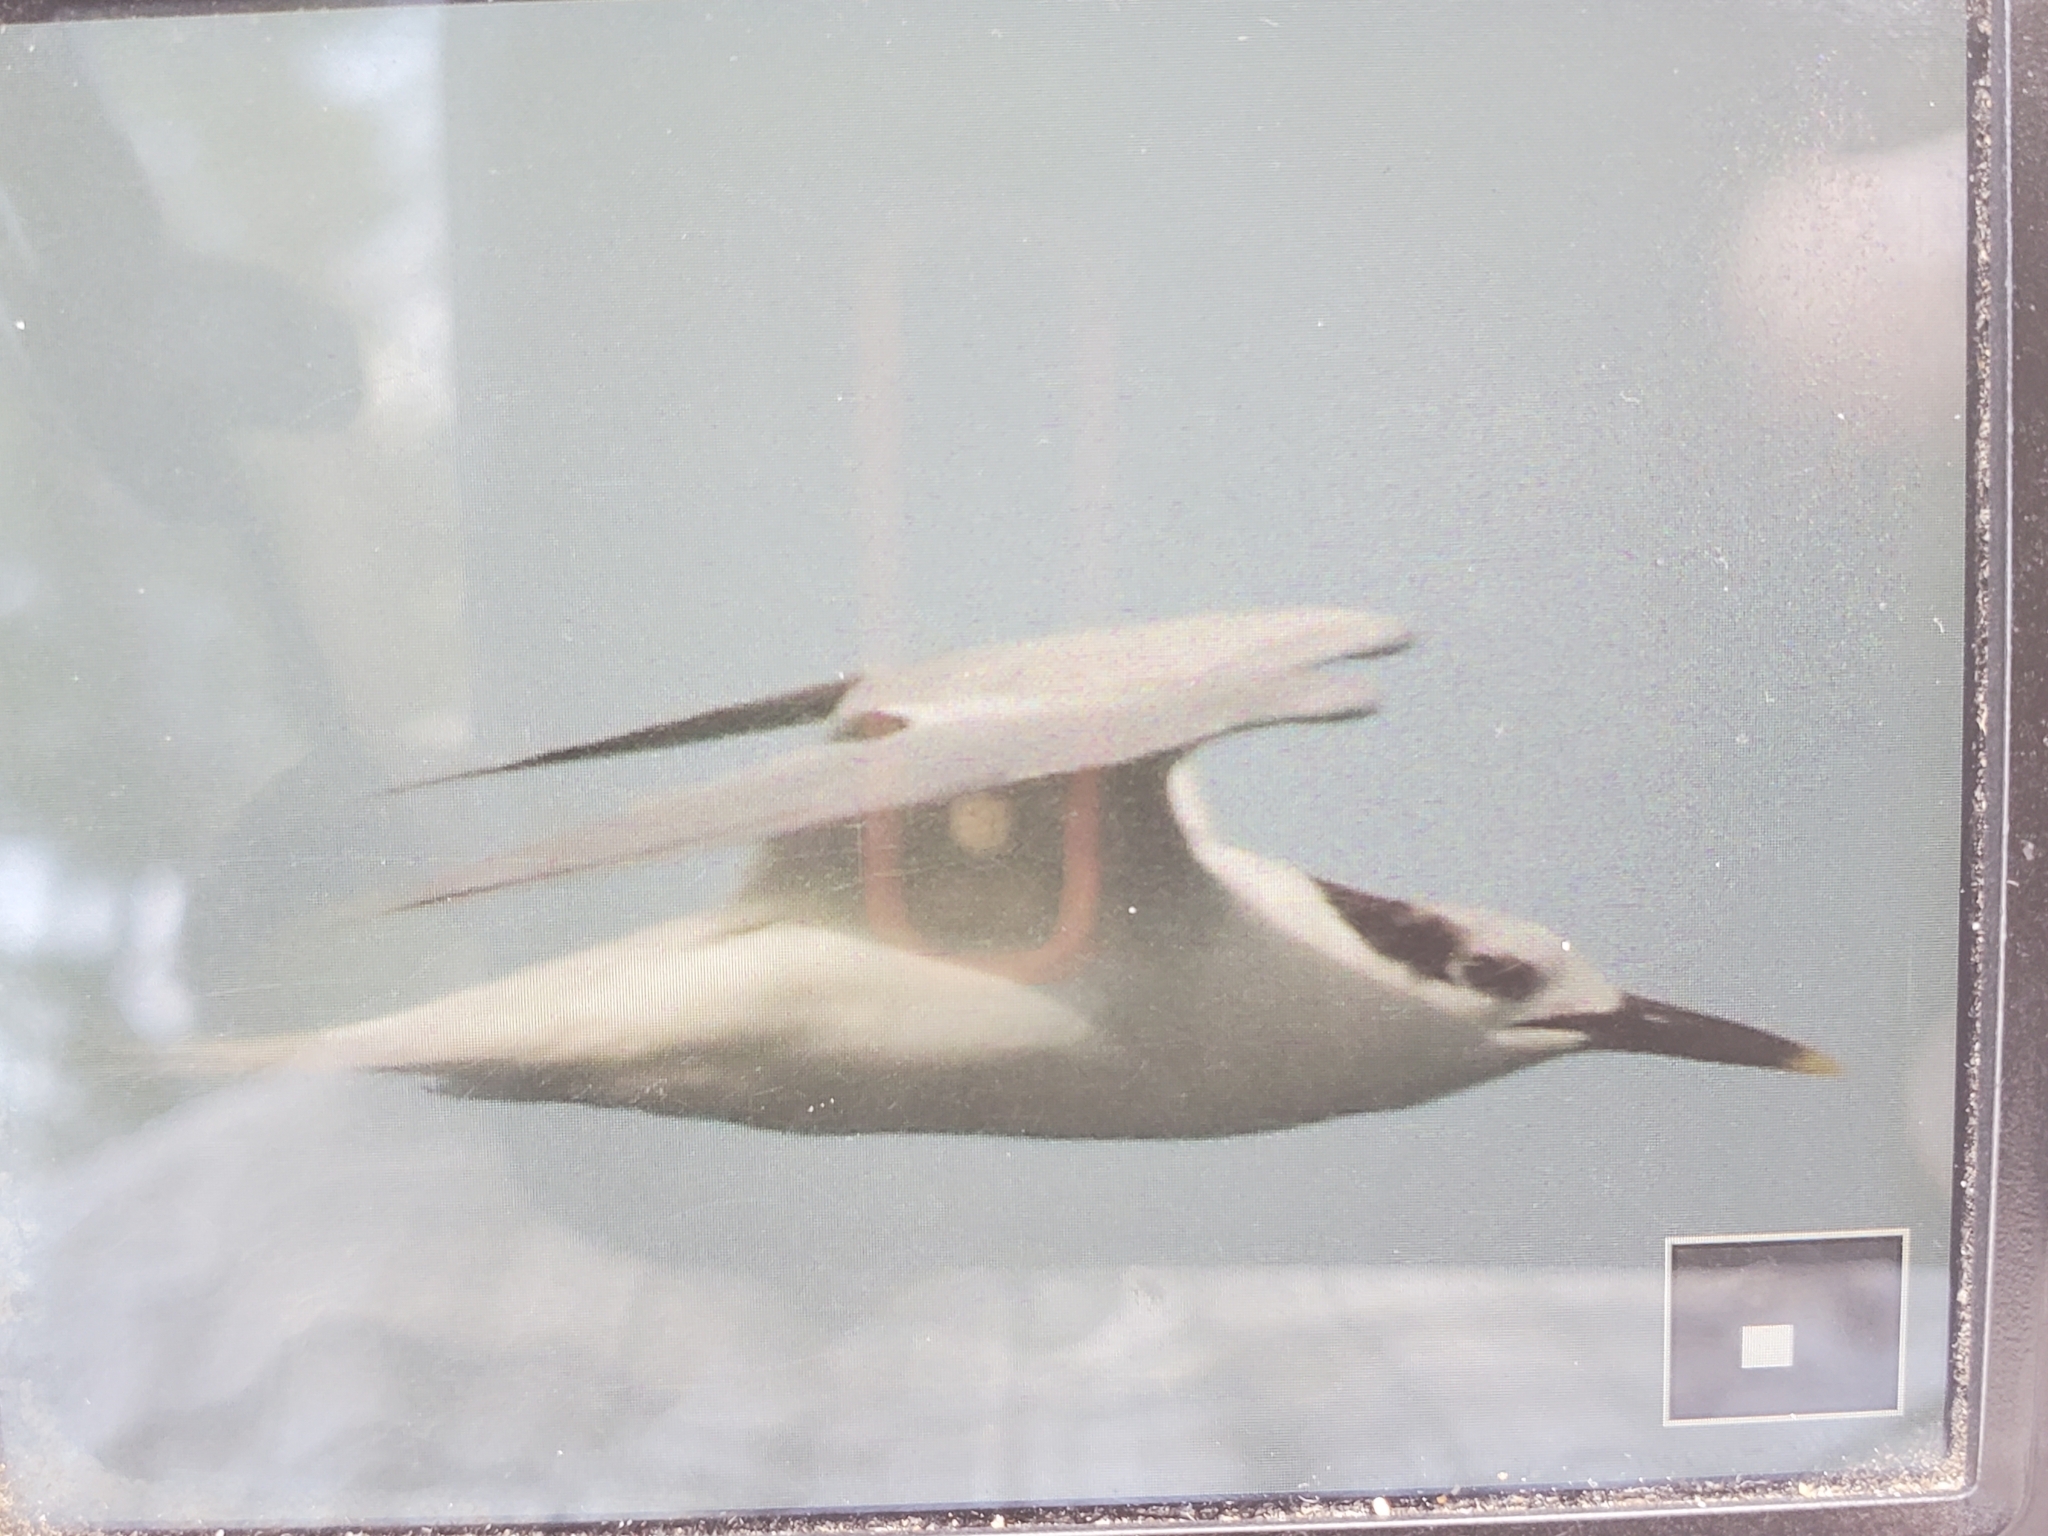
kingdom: Animalia
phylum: Chordata
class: Aves
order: Charadriiformes
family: Laridae
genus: Thalasseus
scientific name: Thalasseus sandvicensis
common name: Sandwich tern
